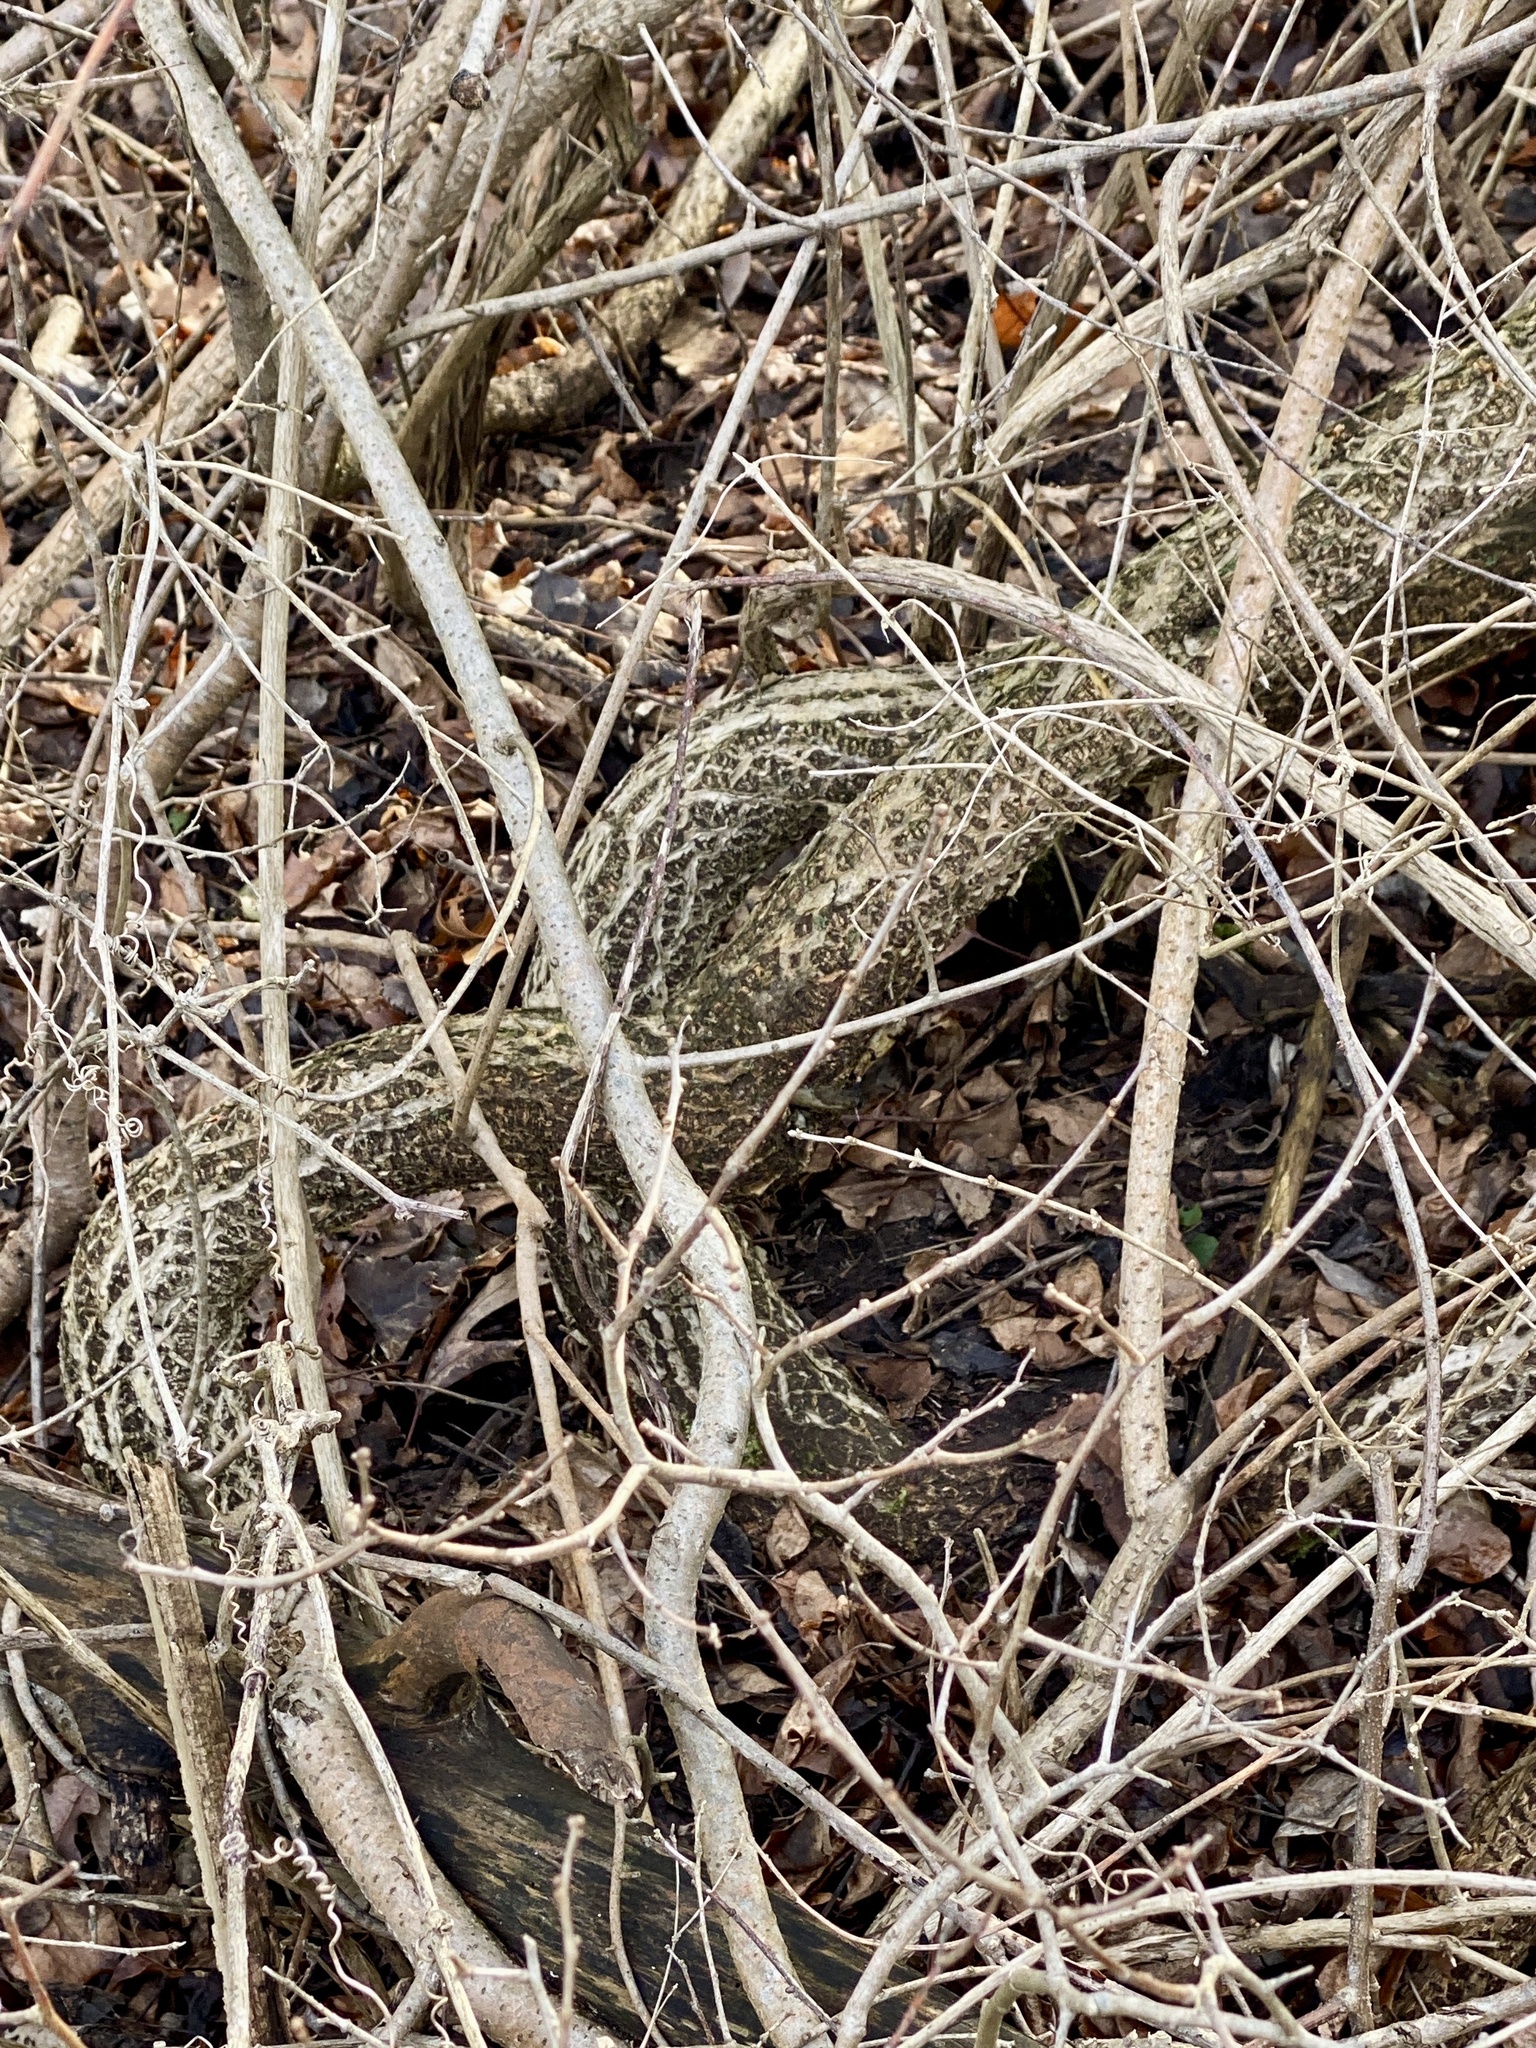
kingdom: Plantae
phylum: Tracheophyta
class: Magnoliopsida
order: Celastrales
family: Celastraceae
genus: Celastrus
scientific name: Celastrus orbiculatus
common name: Oriental bittersweet
